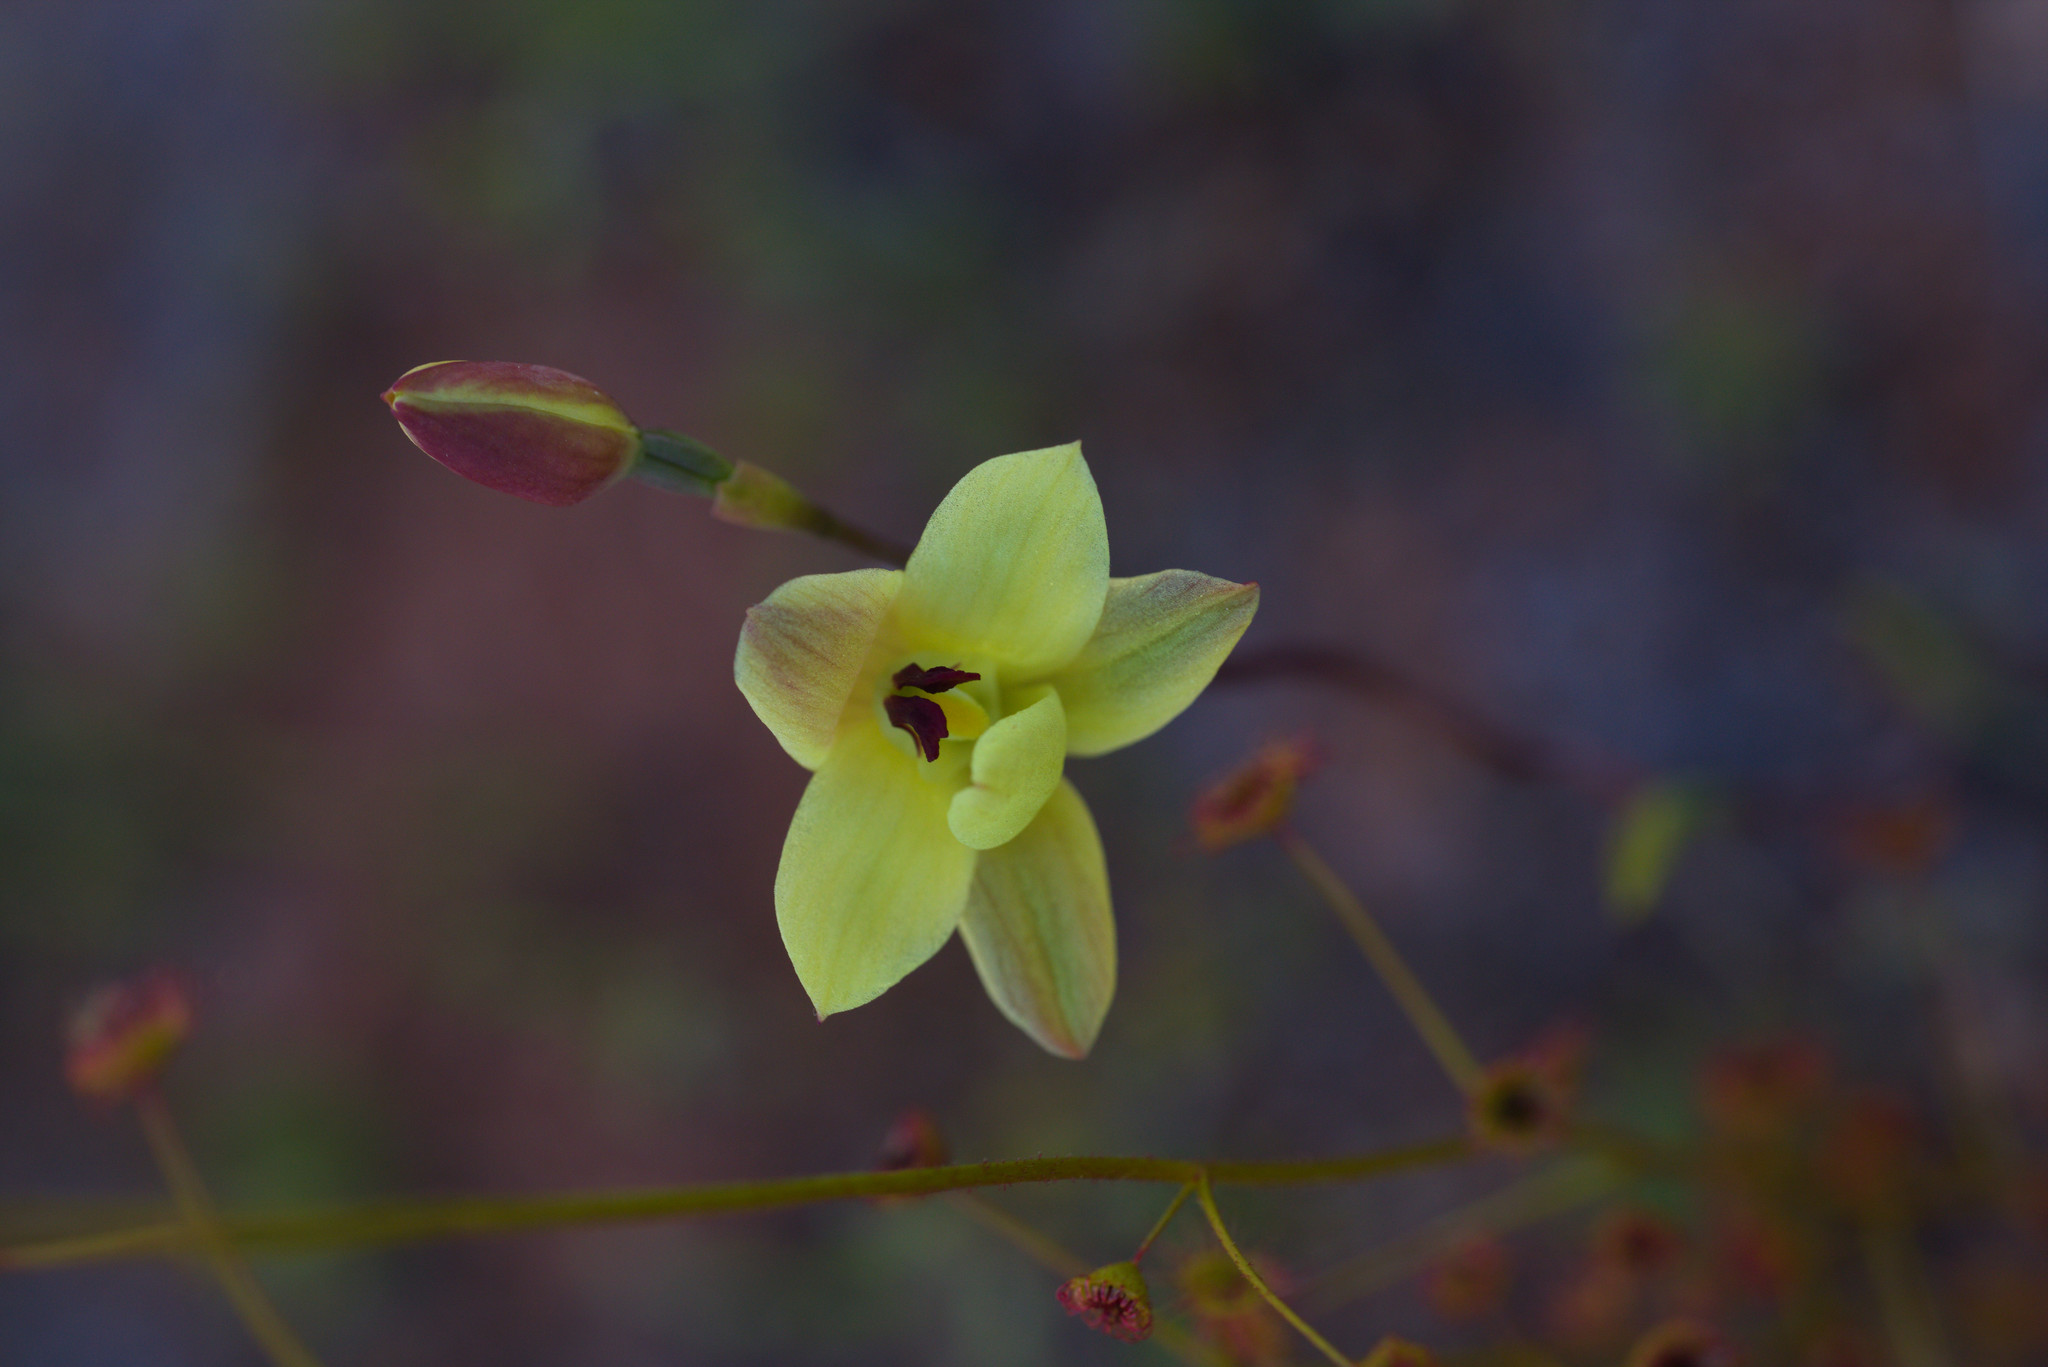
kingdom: Plantae
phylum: Tracheophyta
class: Liliopsida
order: Asparagales
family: Orchidaceae
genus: Thelymitra
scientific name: Thelymitra antennifera
